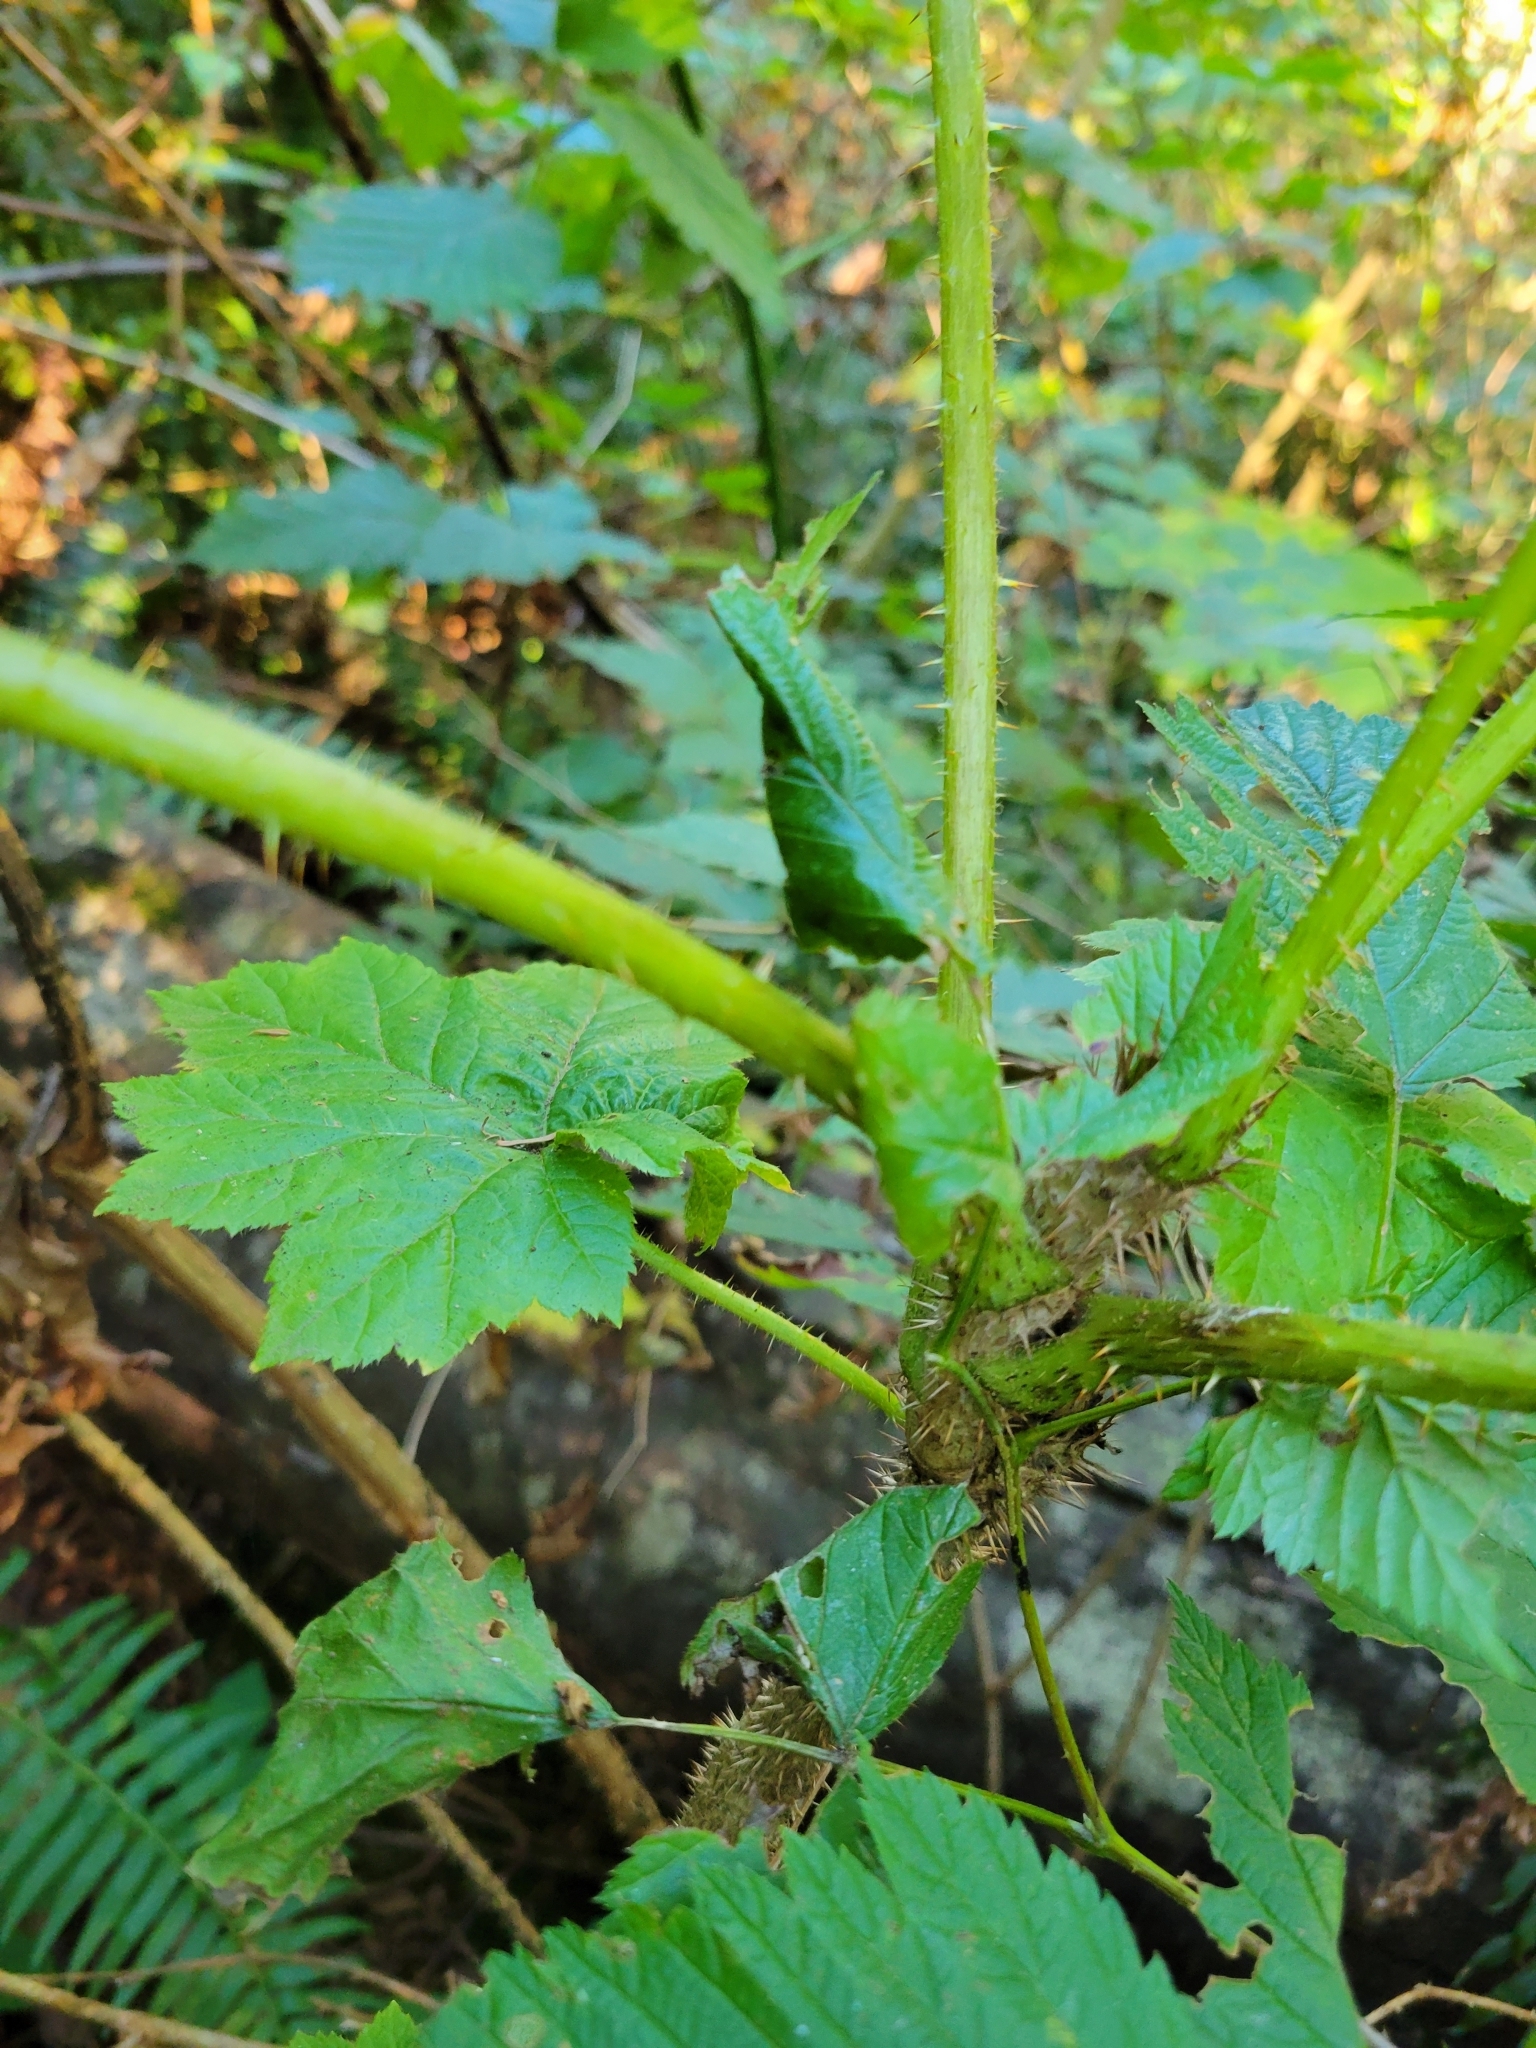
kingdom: Plantae
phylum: Tracheophyta
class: Magnoliopsida
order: Apiales
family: Araliaceae
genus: Oplopanax
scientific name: Oplopanax horridus
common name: Devil's walking-stick
